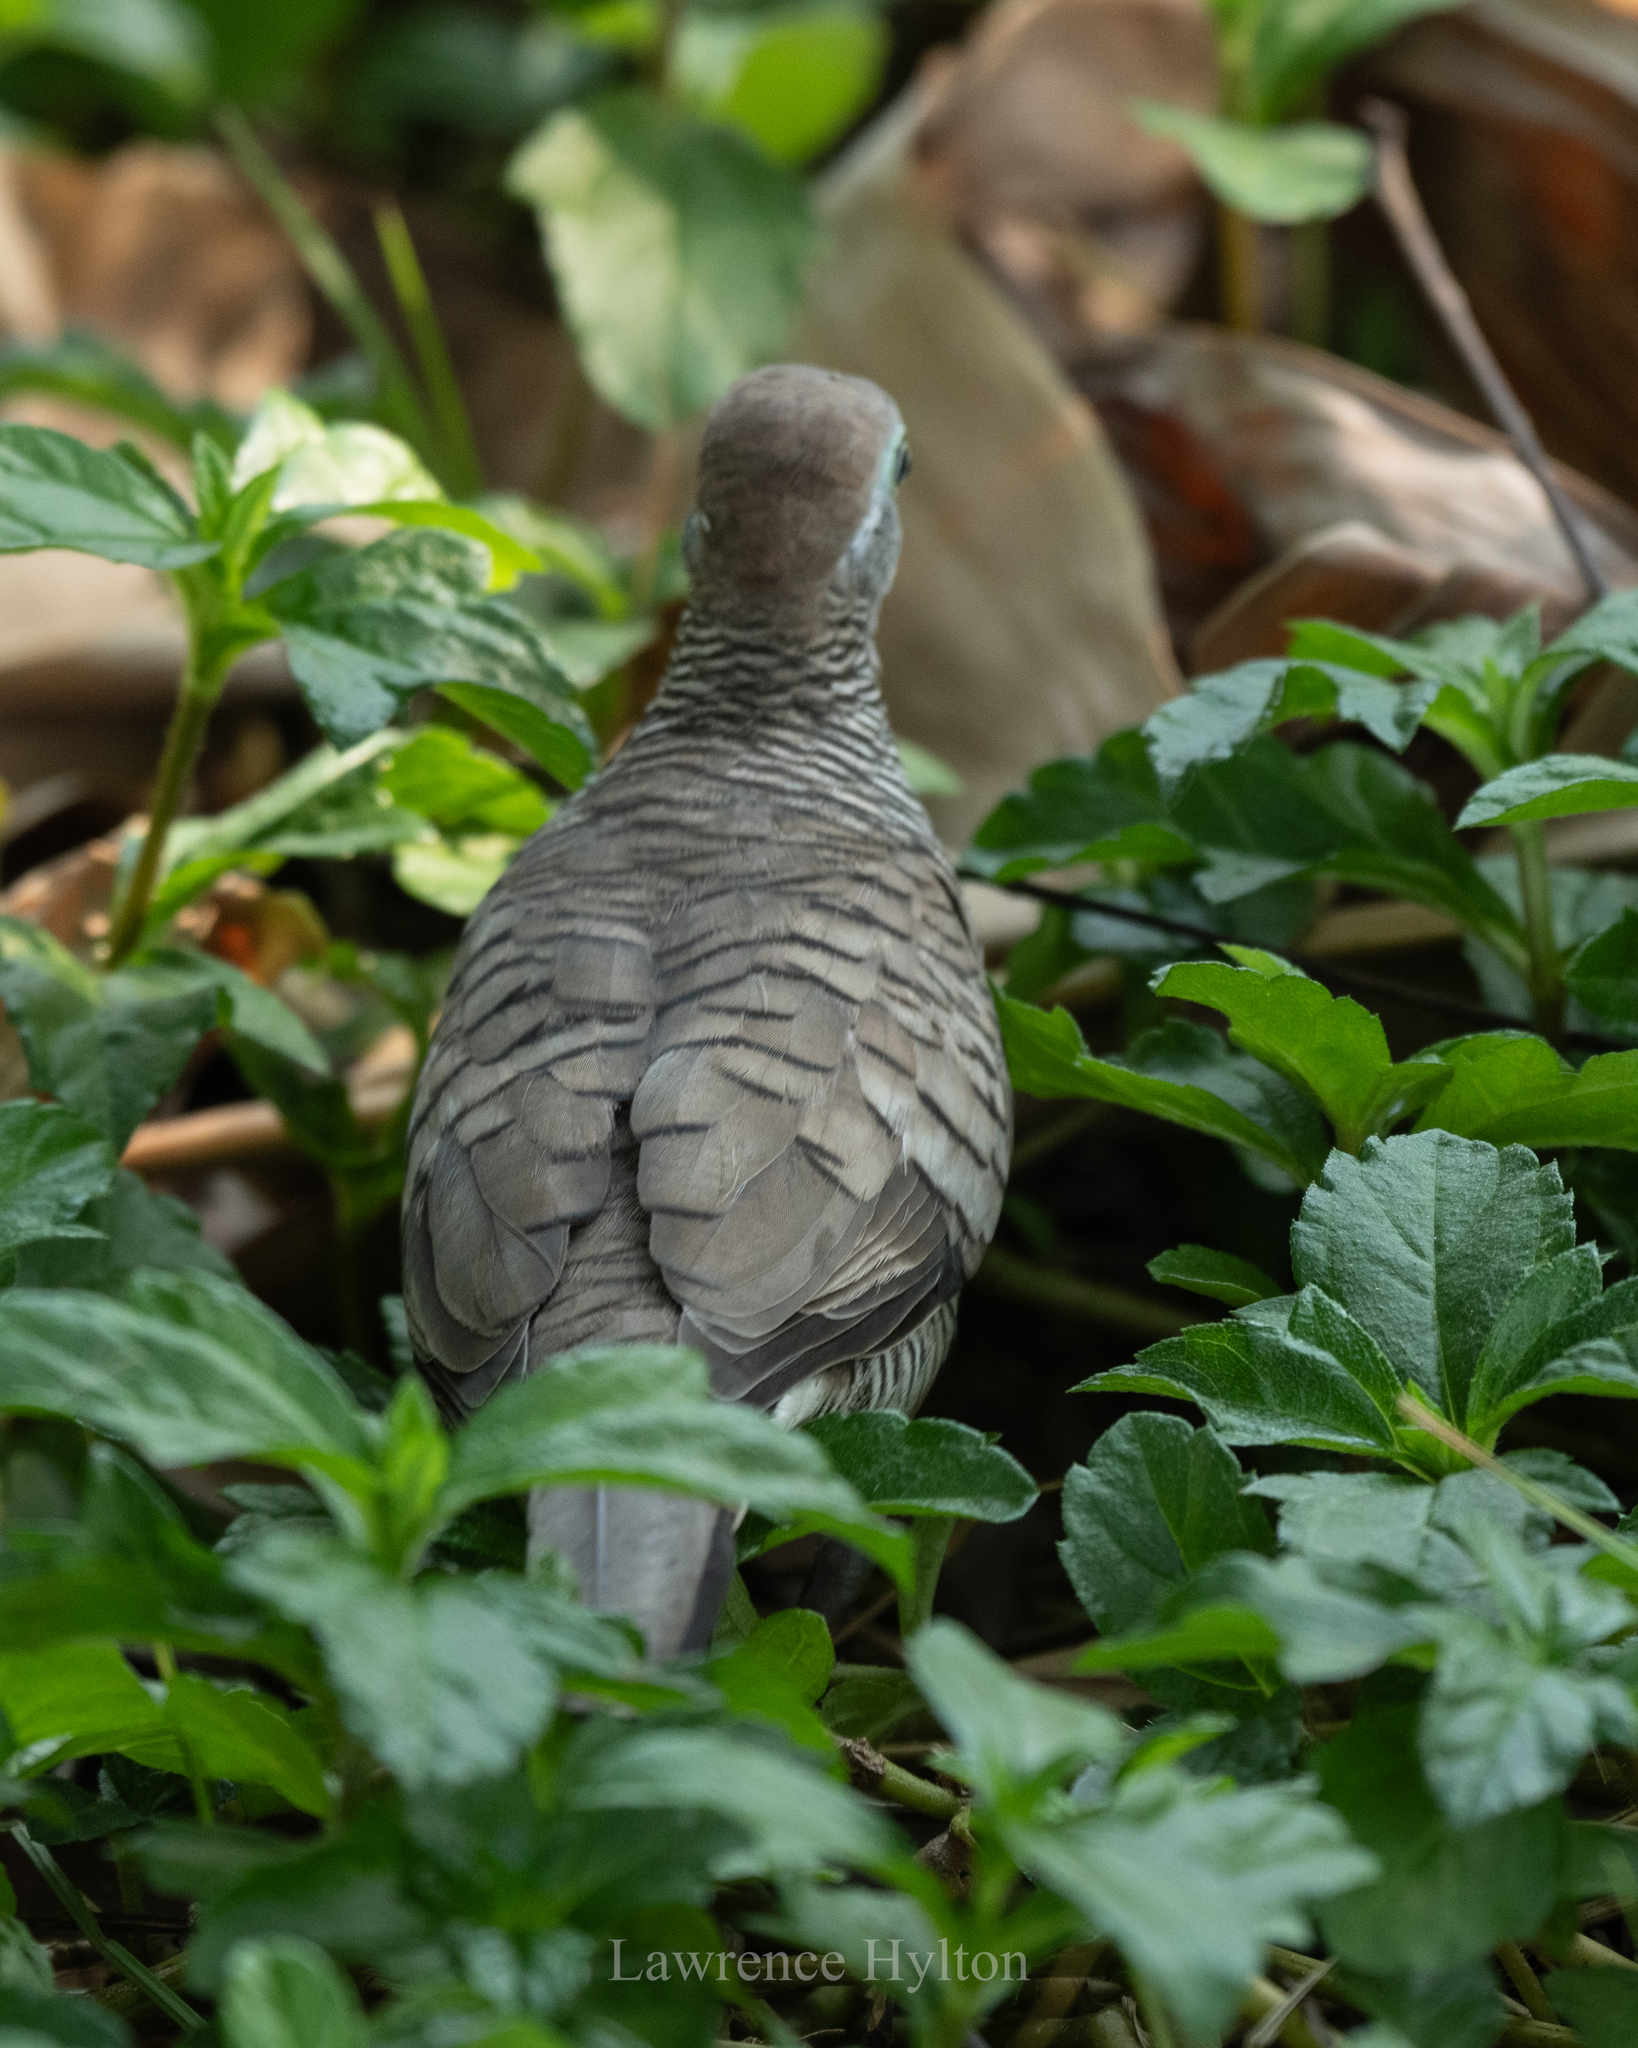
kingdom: Animalia
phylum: Chordata
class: Aves
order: Columbiformes
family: Columbidae
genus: Geopelia
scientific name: Geopelia striata
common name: Zebra dove
